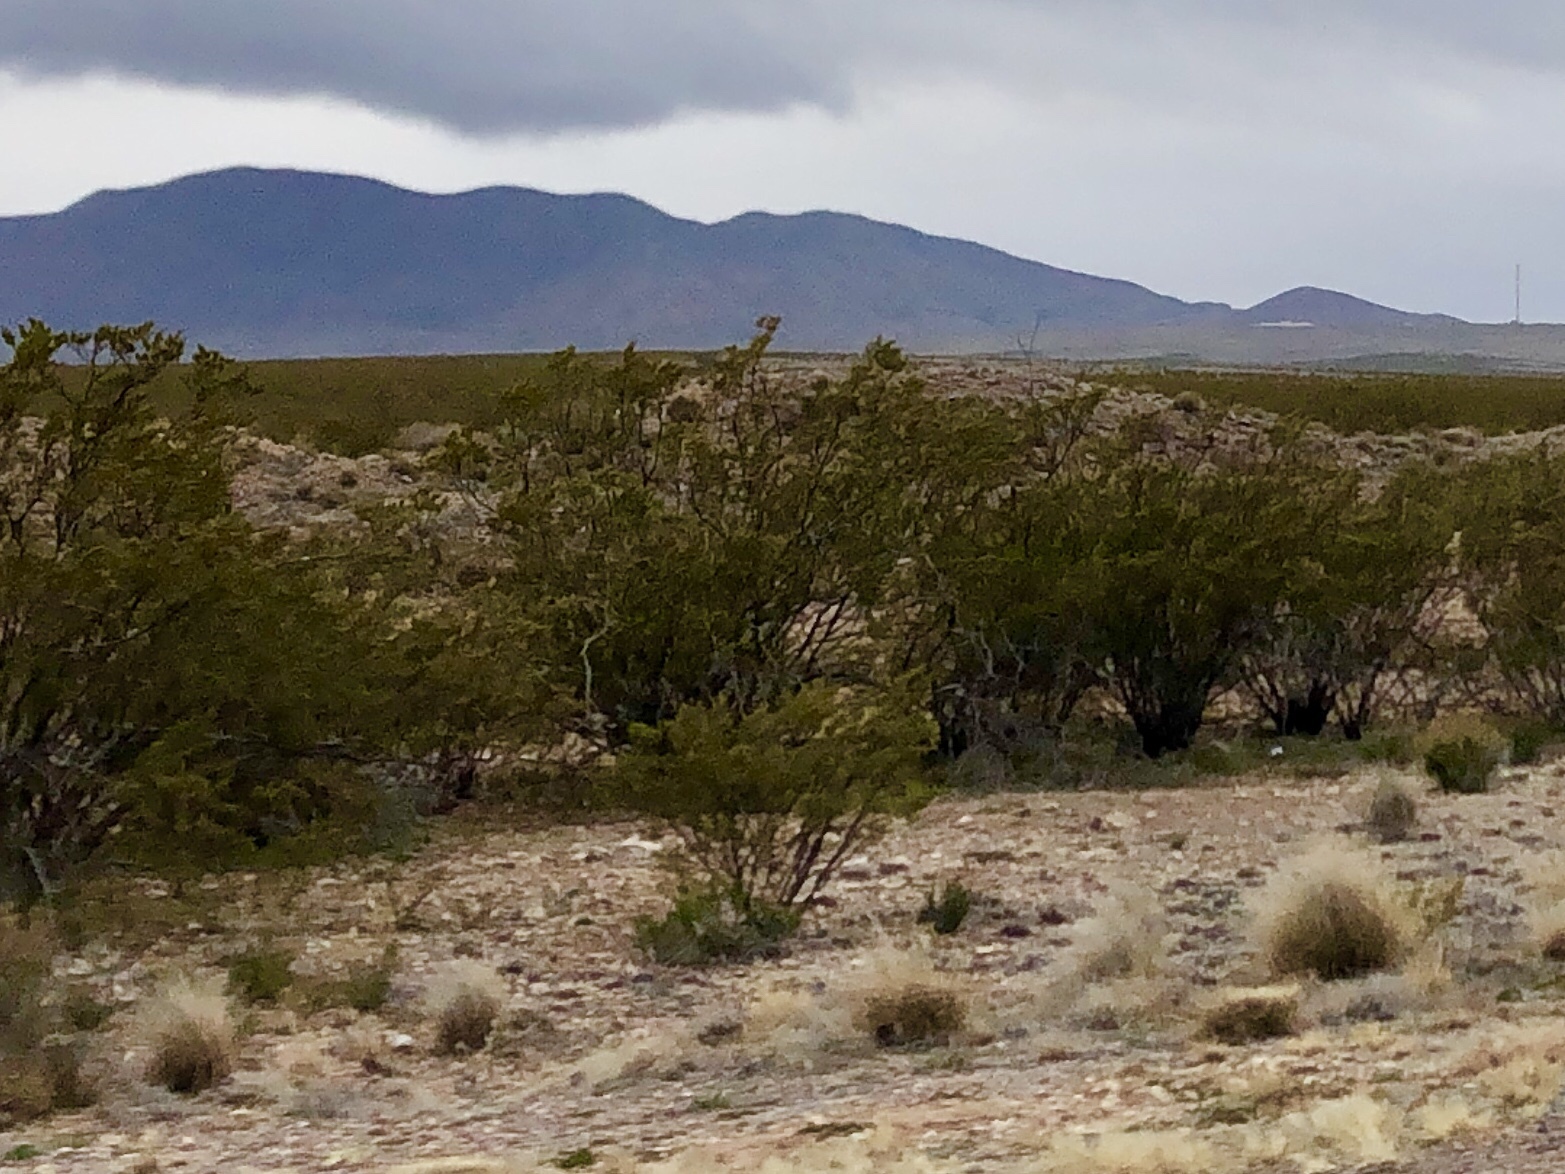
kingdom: Plantae
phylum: Tracheophyta
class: Magnoliopsida
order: Zygophyllales
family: Zygophyllaceae
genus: Larrea
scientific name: Larrea tridentata
